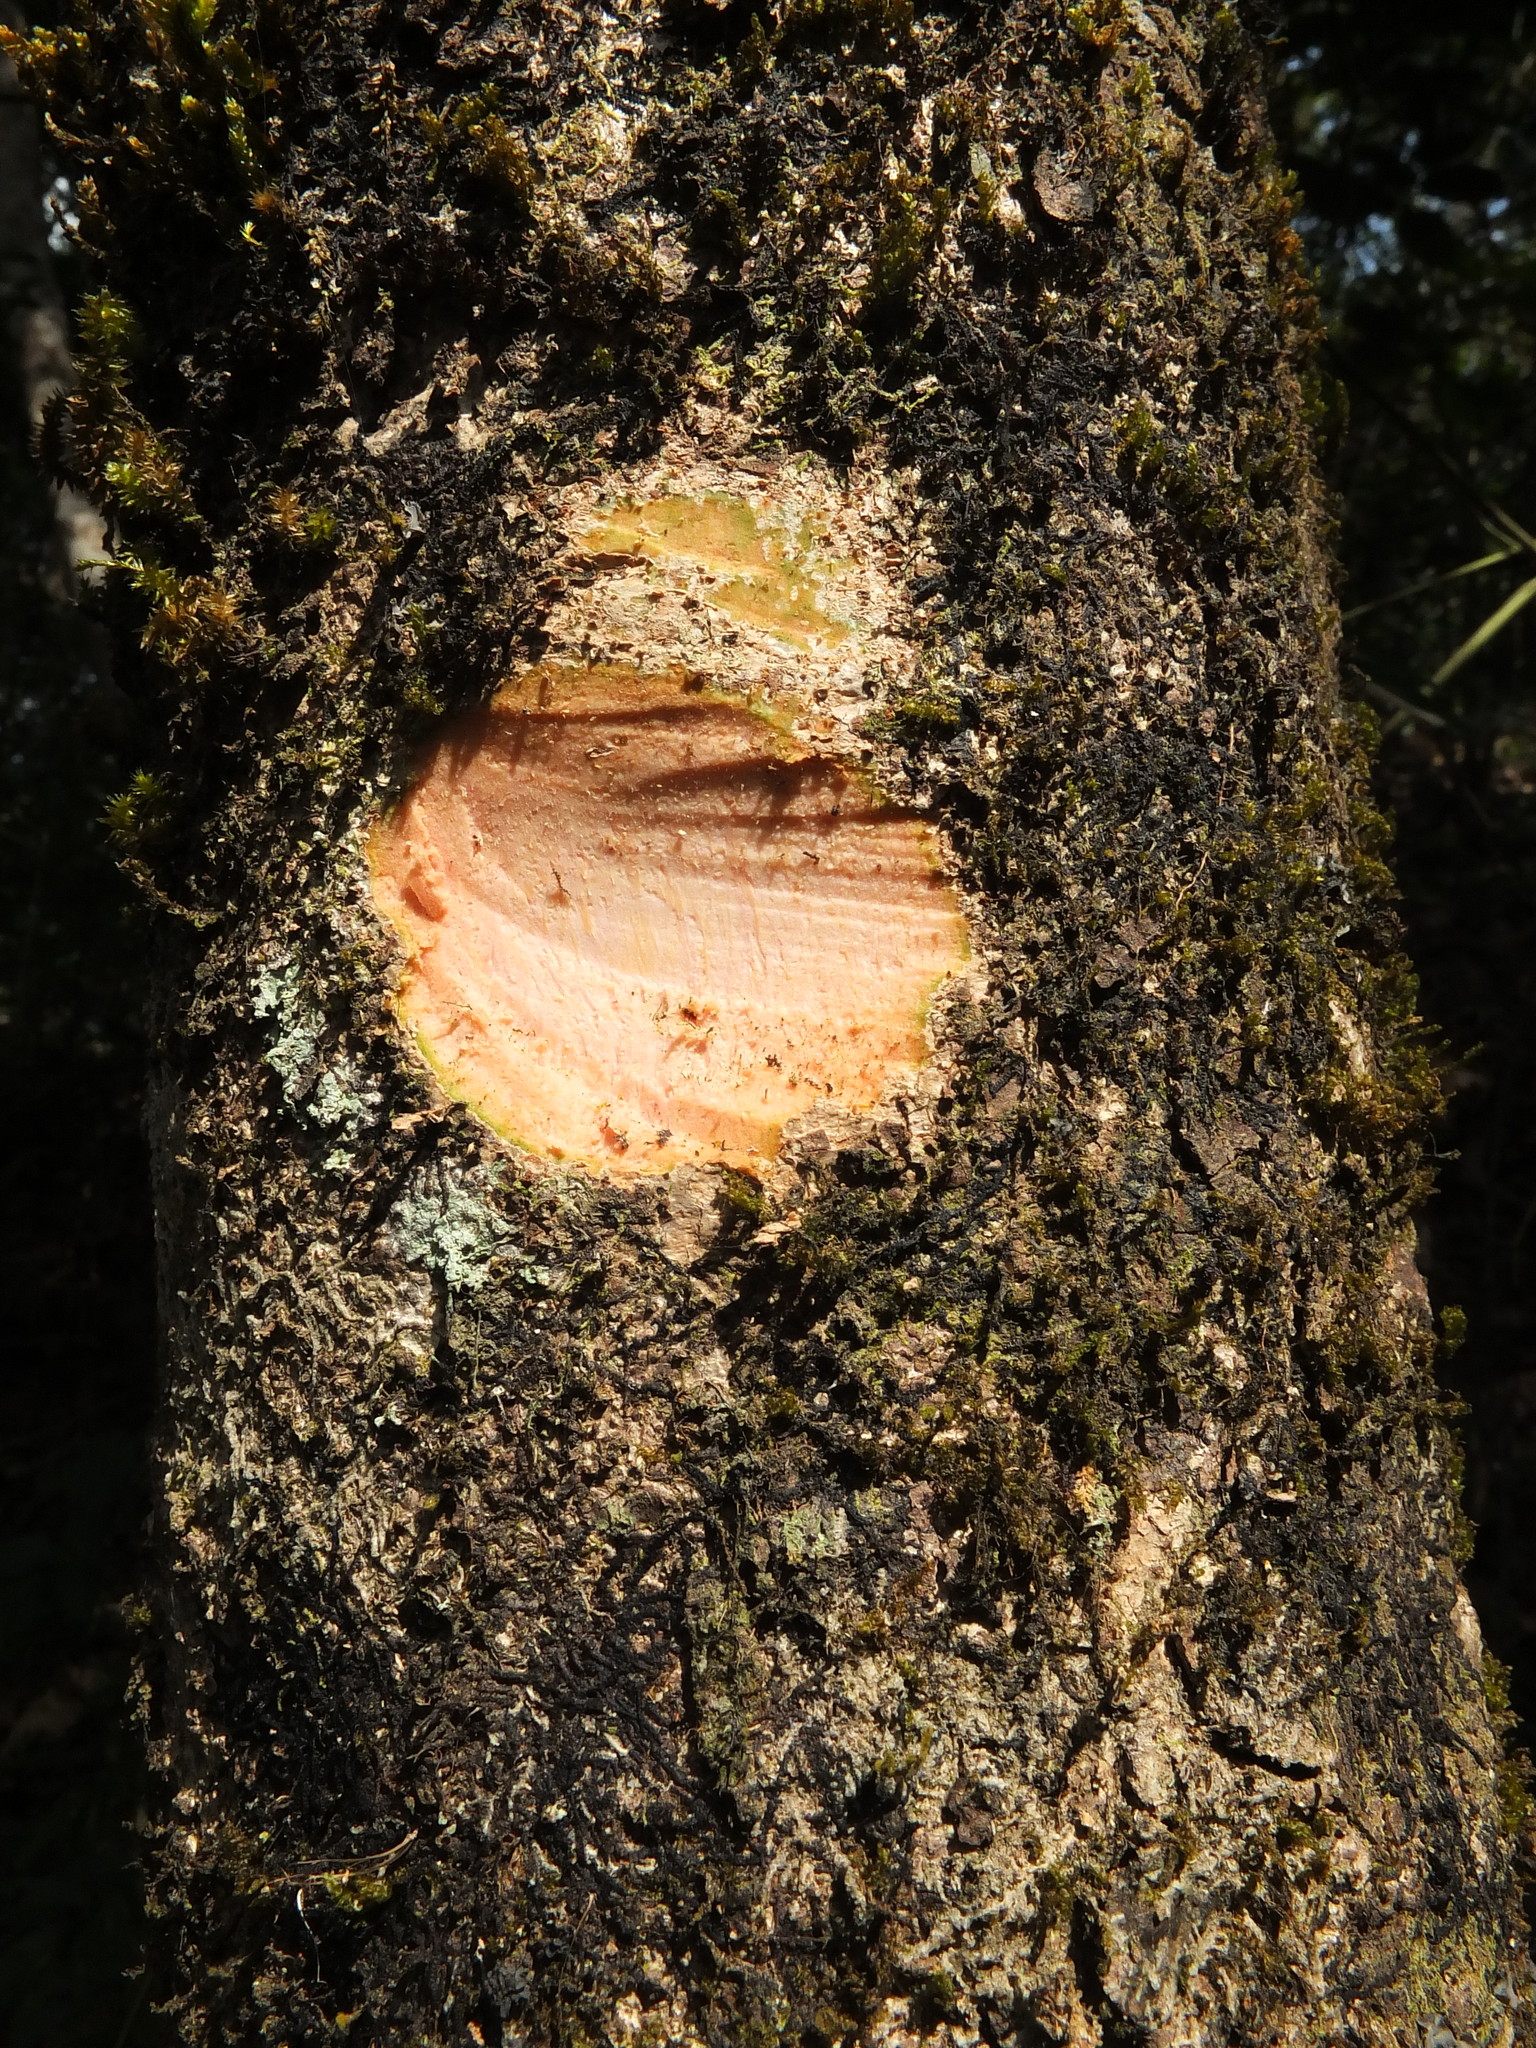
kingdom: Plantae
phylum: Tracheophyta
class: Magnoliopsida
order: Sapindales
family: Sapindaceae
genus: Schleichera
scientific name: Schleichera oleosa
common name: Malay lactree
